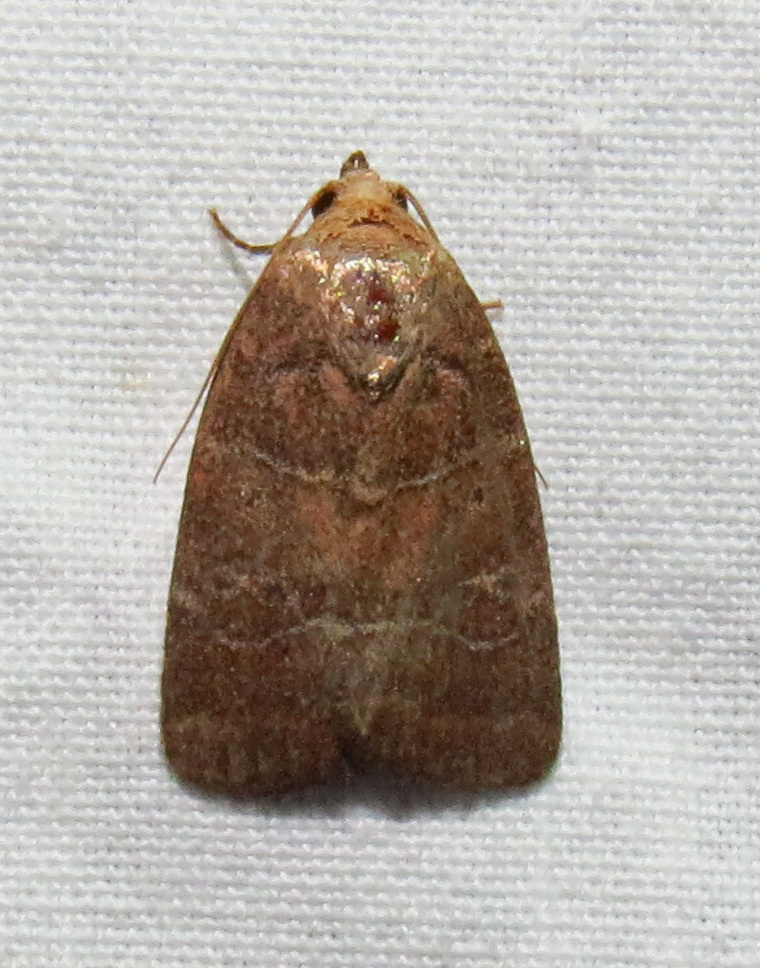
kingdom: Animalia
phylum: Arthropoda
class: Insecta
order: Lepidoptera
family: Noctuidae
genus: Elaphria
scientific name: Elaphria grata
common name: Grateful midget moth
